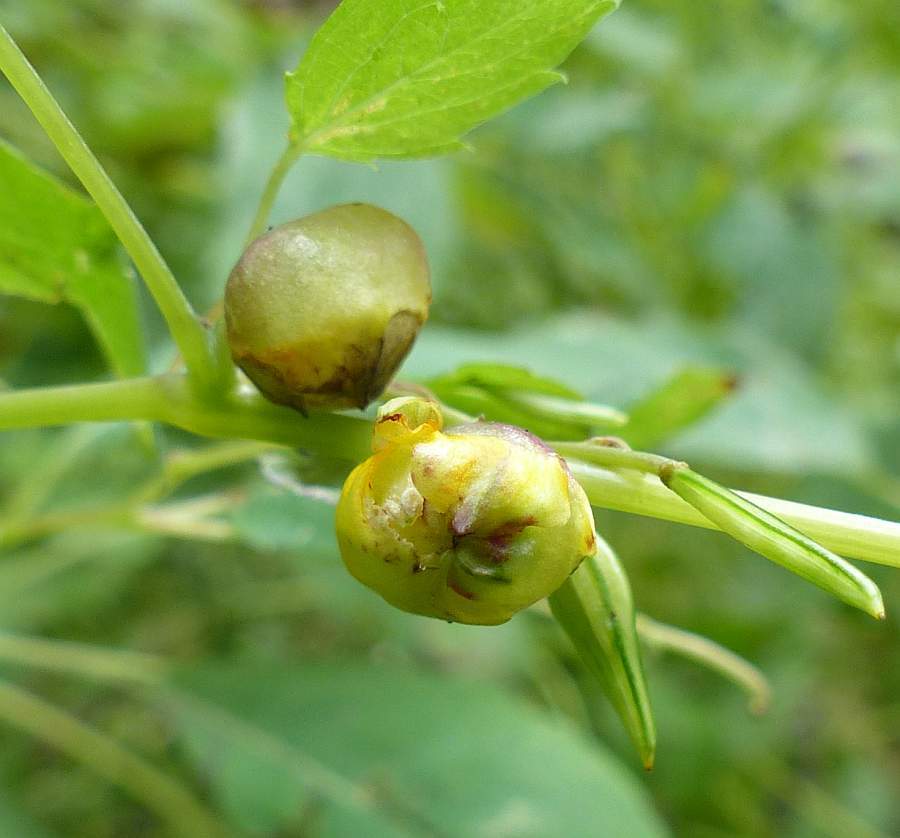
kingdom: Animalia
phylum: Arthropoda
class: Insecta
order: Diptera
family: Cecidomyiidae
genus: Schizomyia
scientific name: Schizomyia impatientis
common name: Jewelweed gall midge
